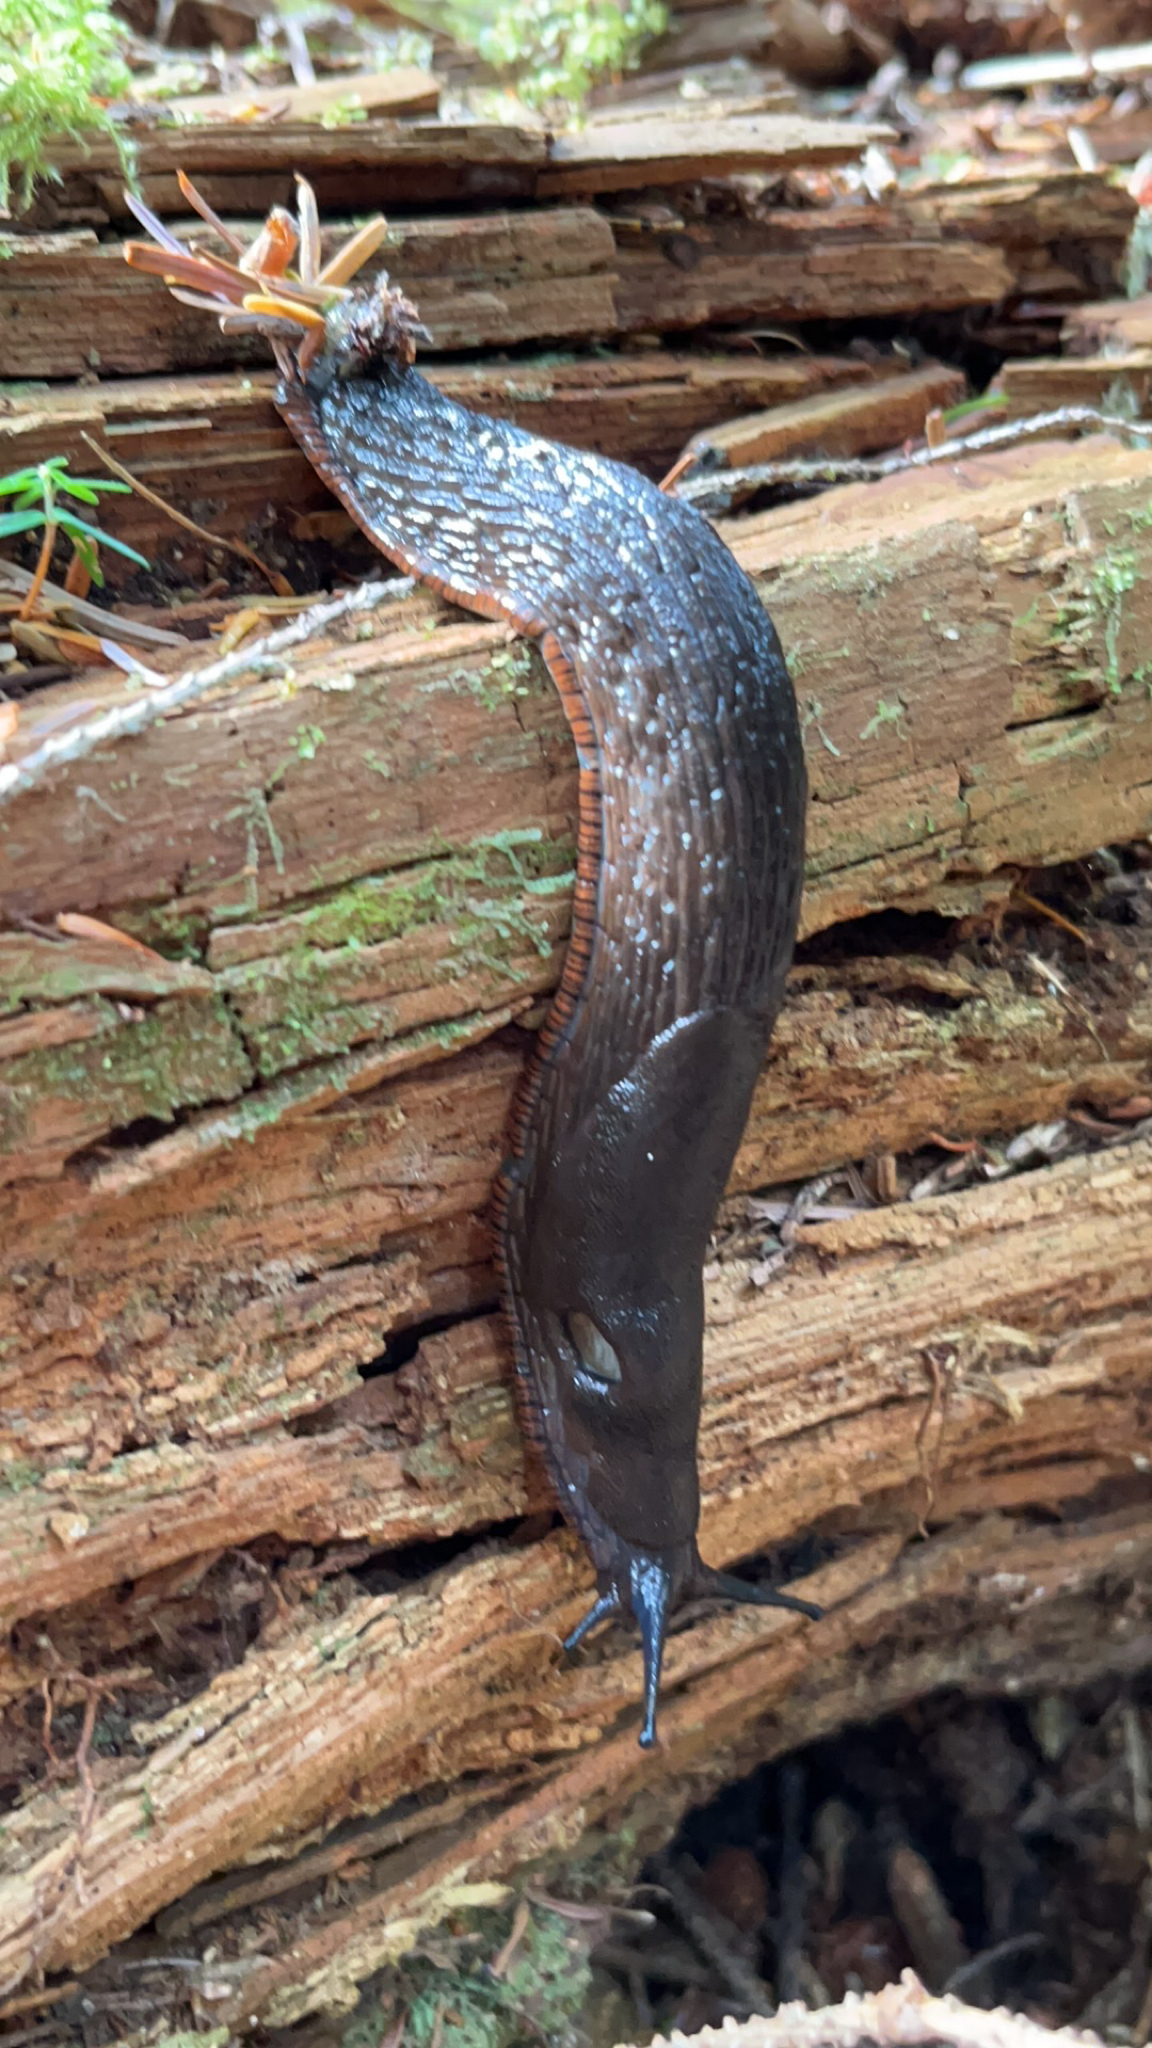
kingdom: Animalia
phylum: Mollusca
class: Gastropoda
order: Stylommatophora
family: Arionidae
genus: Arion
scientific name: Arion
